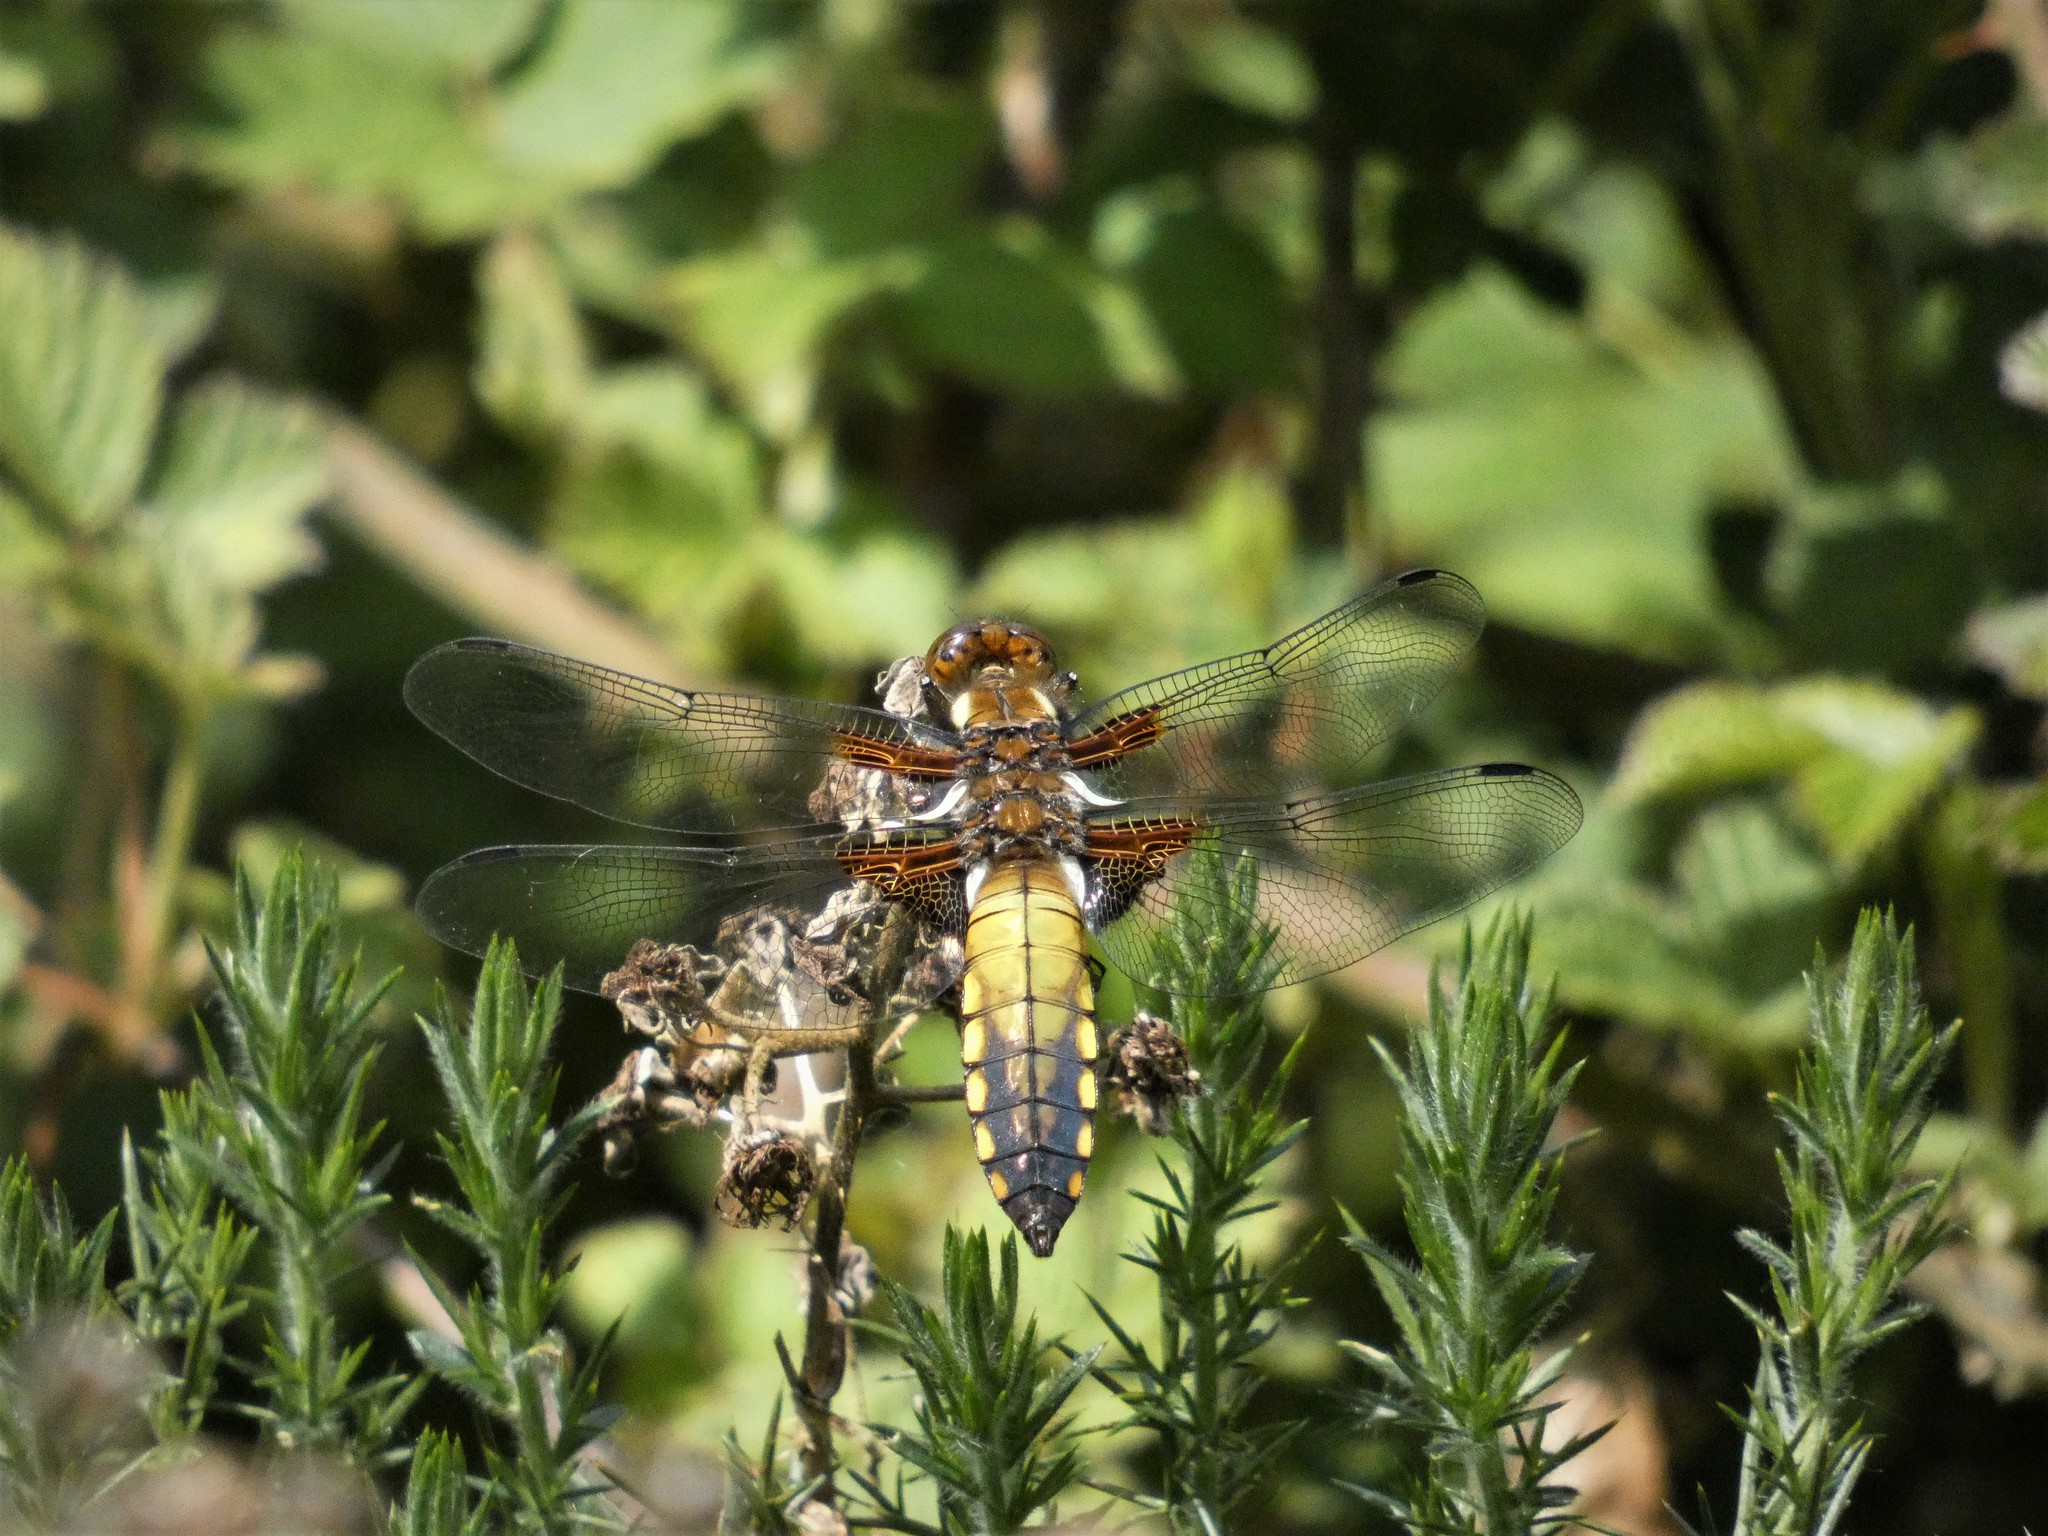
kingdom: Animalia
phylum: Arthropoda
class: Insecta
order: Odonata
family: Libellulidae
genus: Libellula
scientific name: Libellula depressa
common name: Broad-bodied chaser
